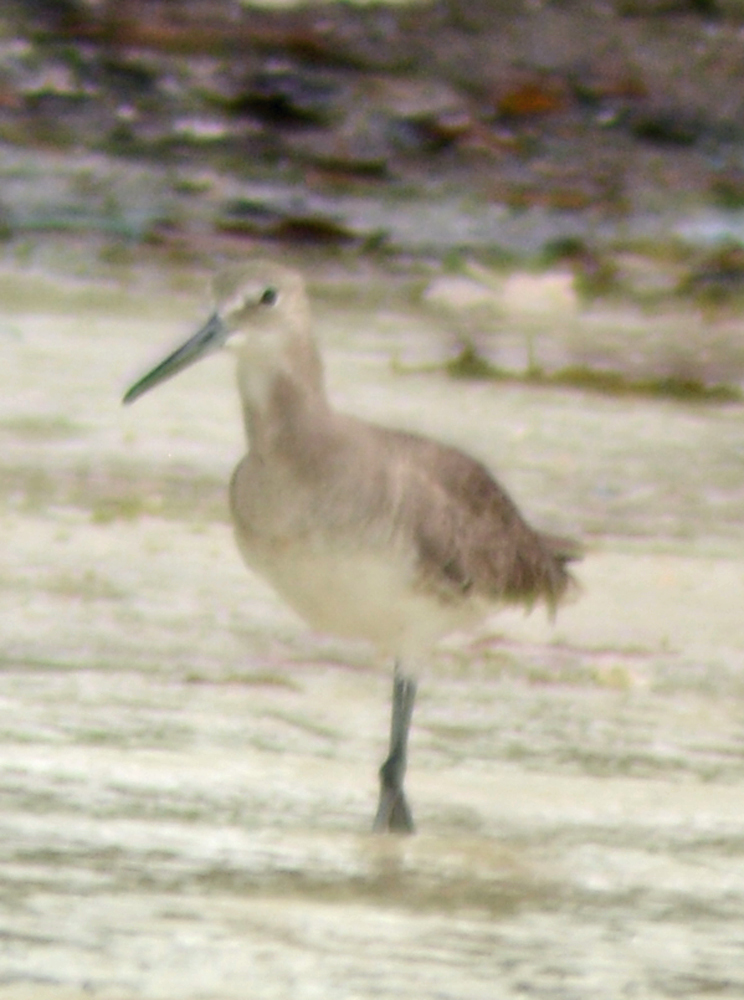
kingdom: Animalia
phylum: Chordata
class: Aves
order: Charadriiformes
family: Scolopacidae
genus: Tringa
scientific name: Tringa semipalmata
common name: Willet
